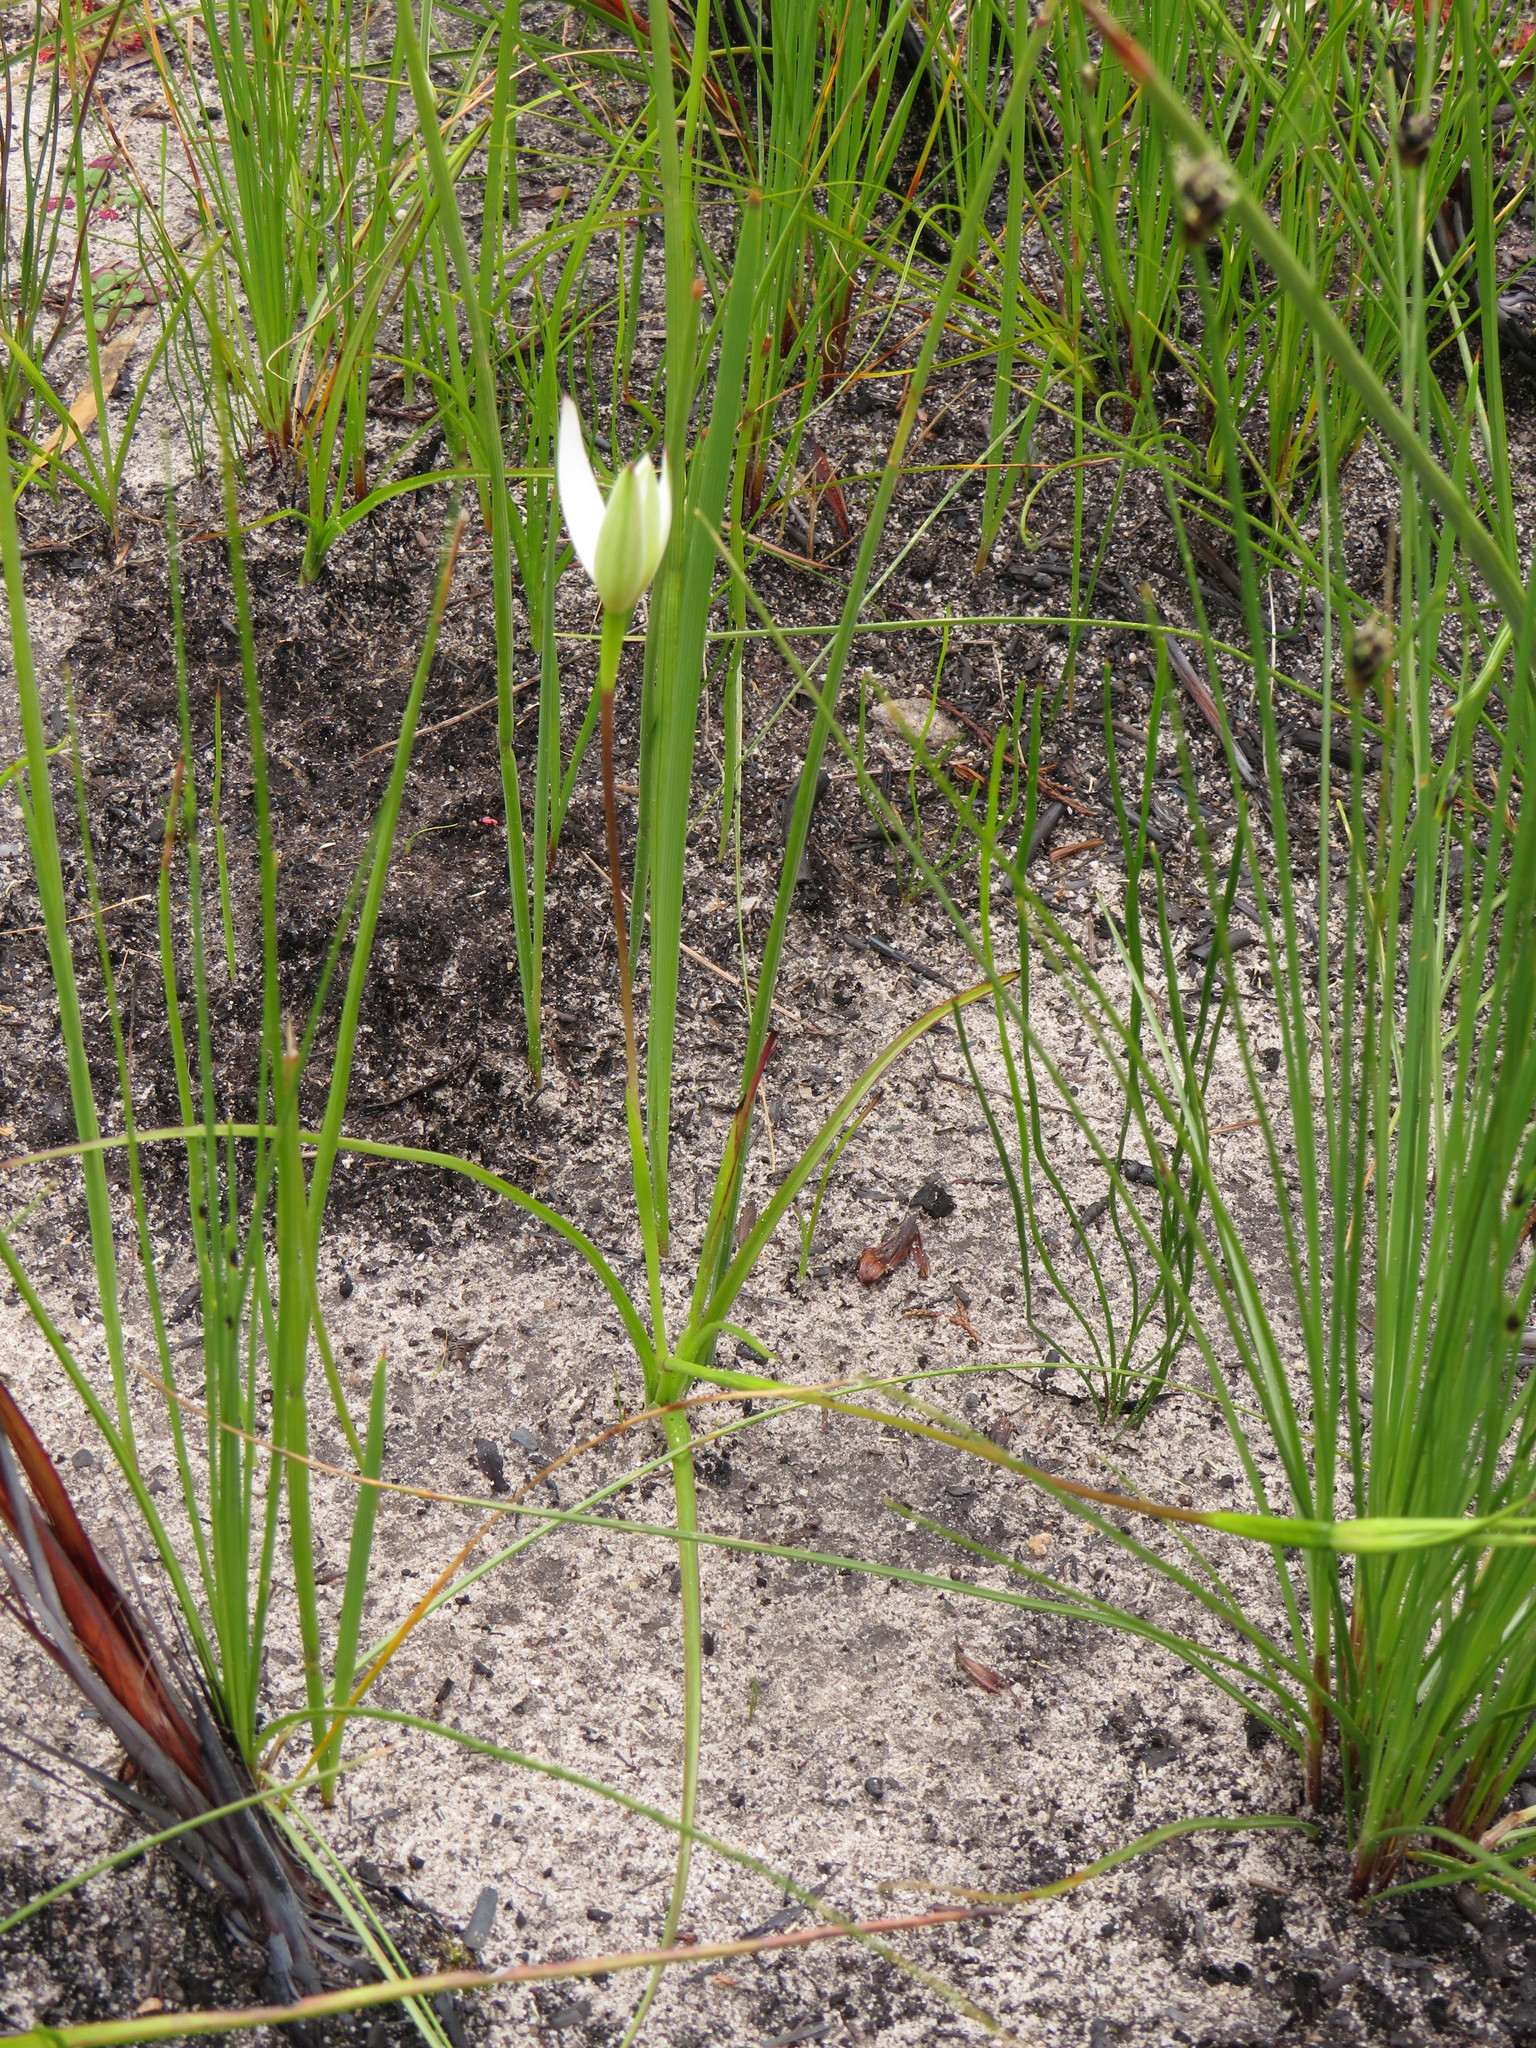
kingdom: Plantae
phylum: Tracheophyta
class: Liliopsida
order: Asparagales
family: Hypoxidaceae
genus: Pauridia
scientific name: Pauridia capensis
